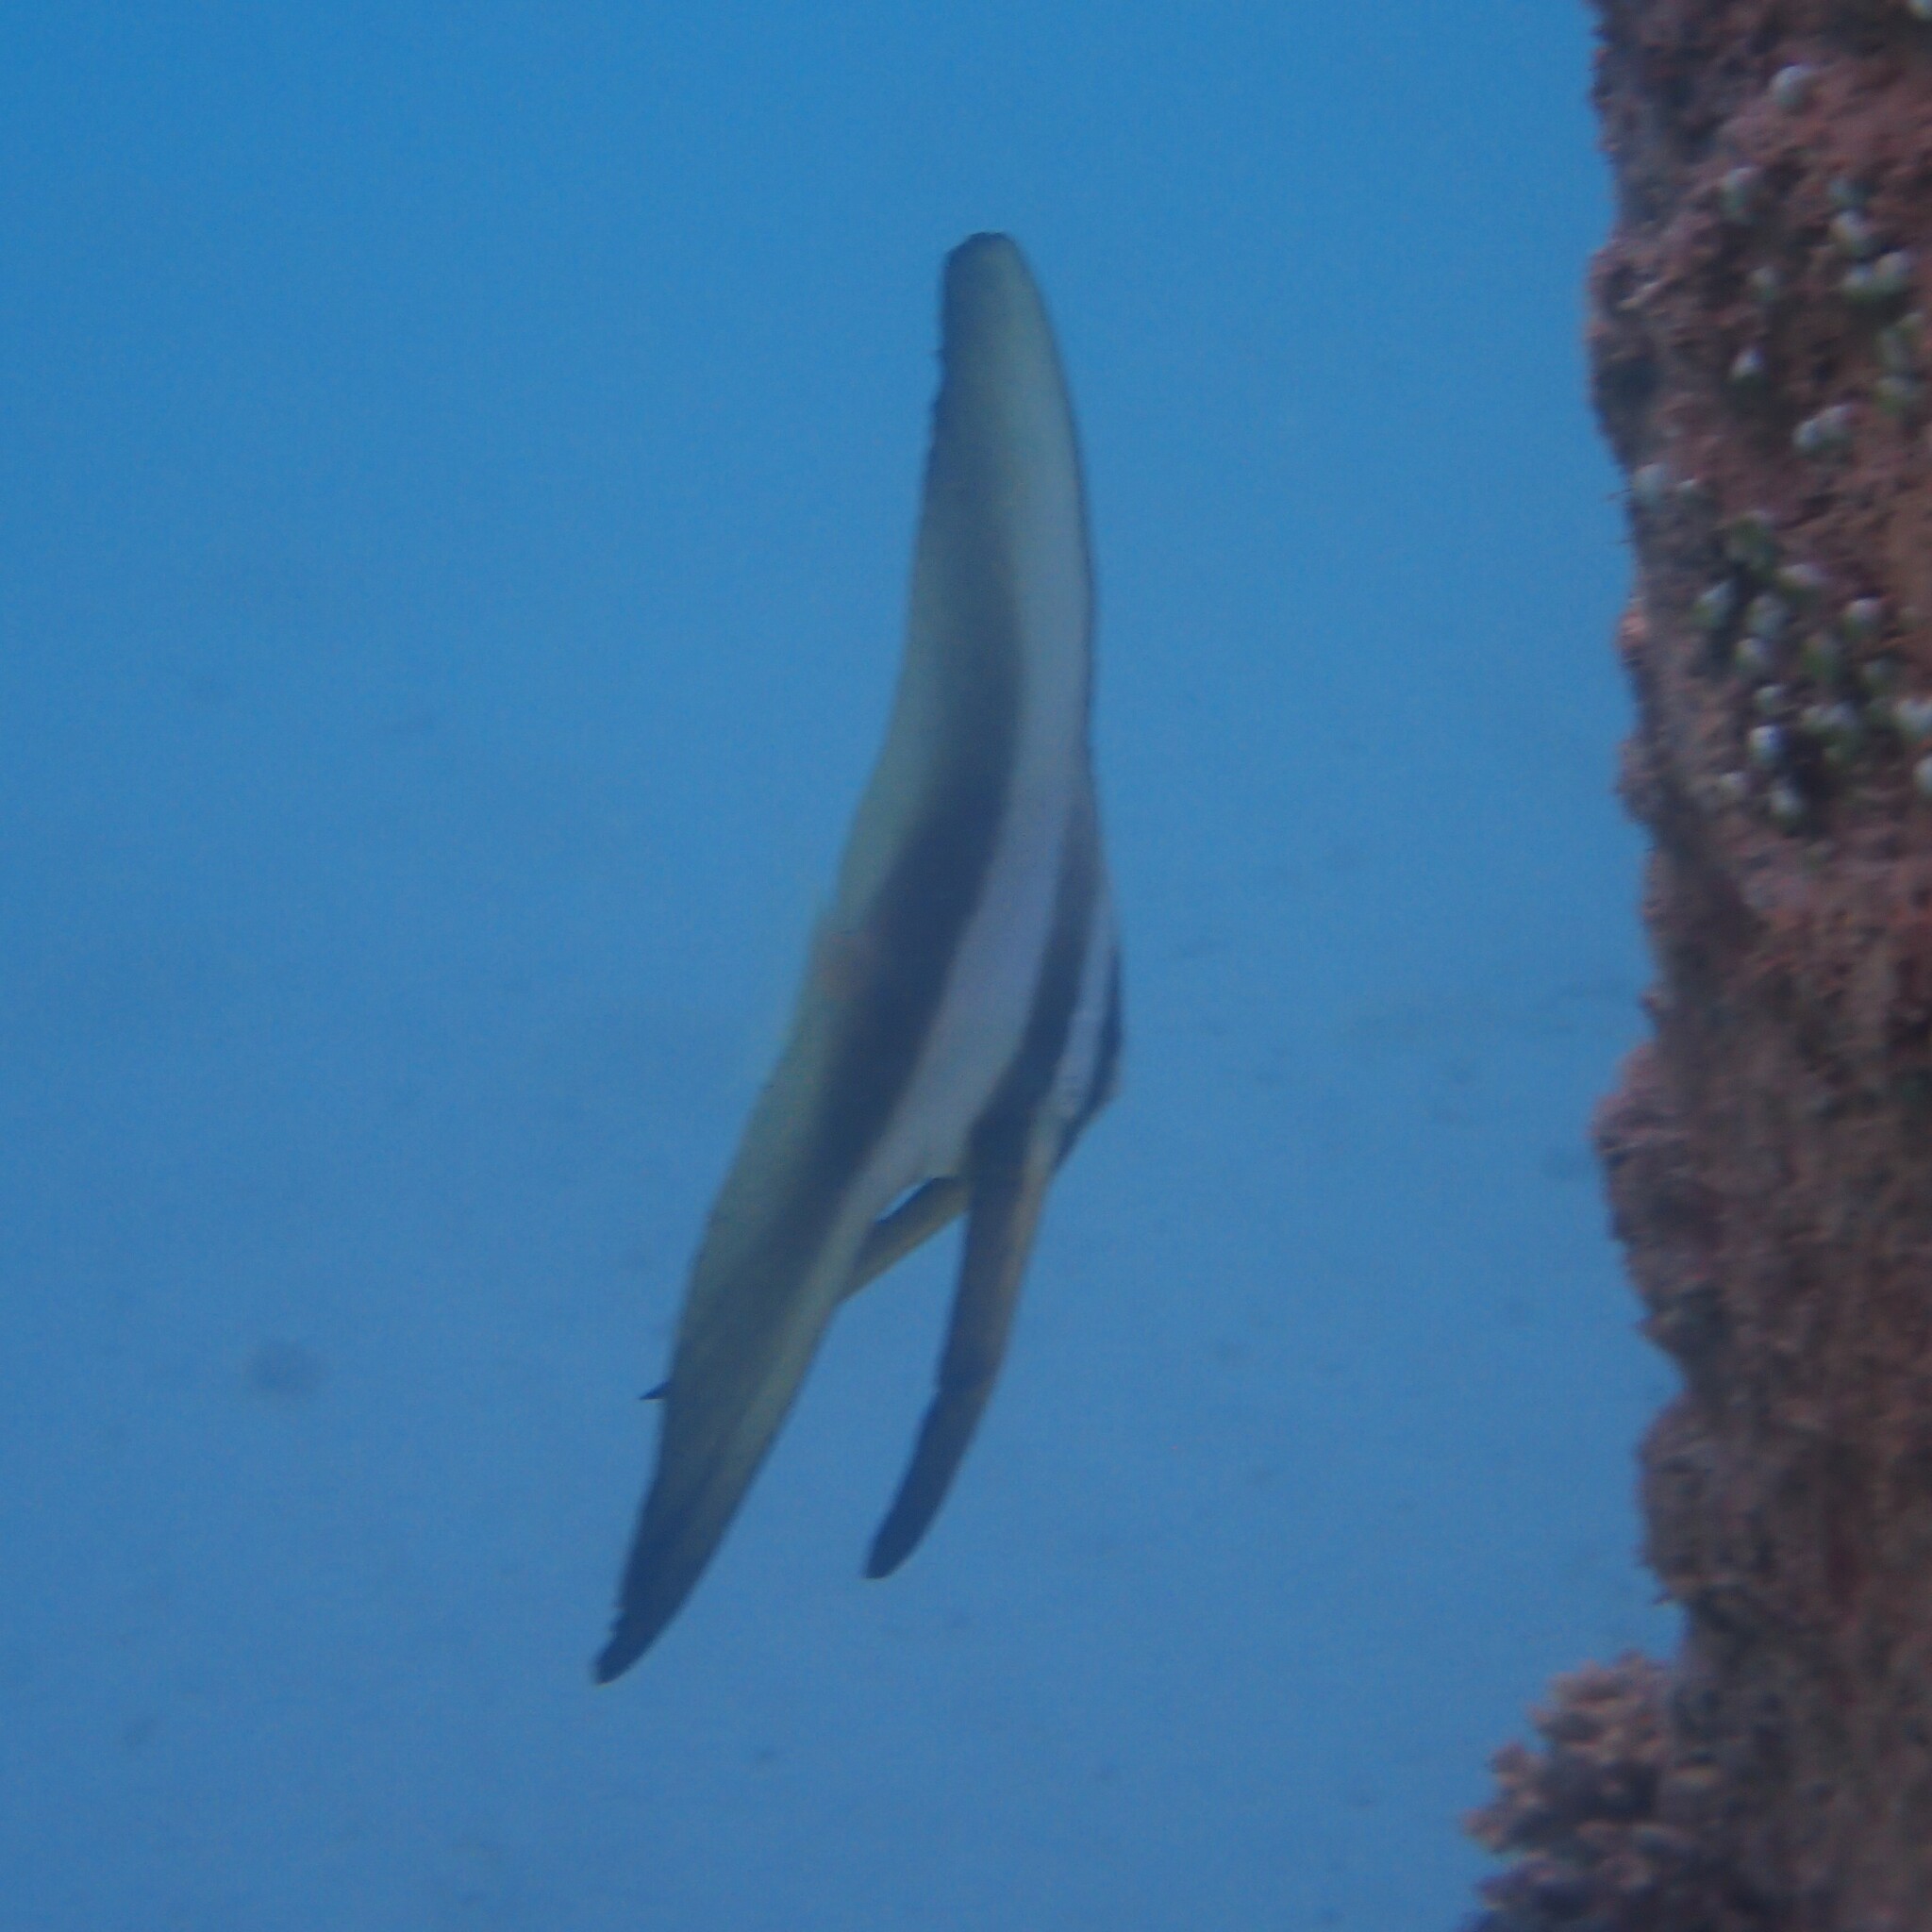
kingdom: Animalia
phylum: Chordata
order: Perciformes
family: Ephippidae
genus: Platax
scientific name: Platax teira
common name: Longfin baitfish
